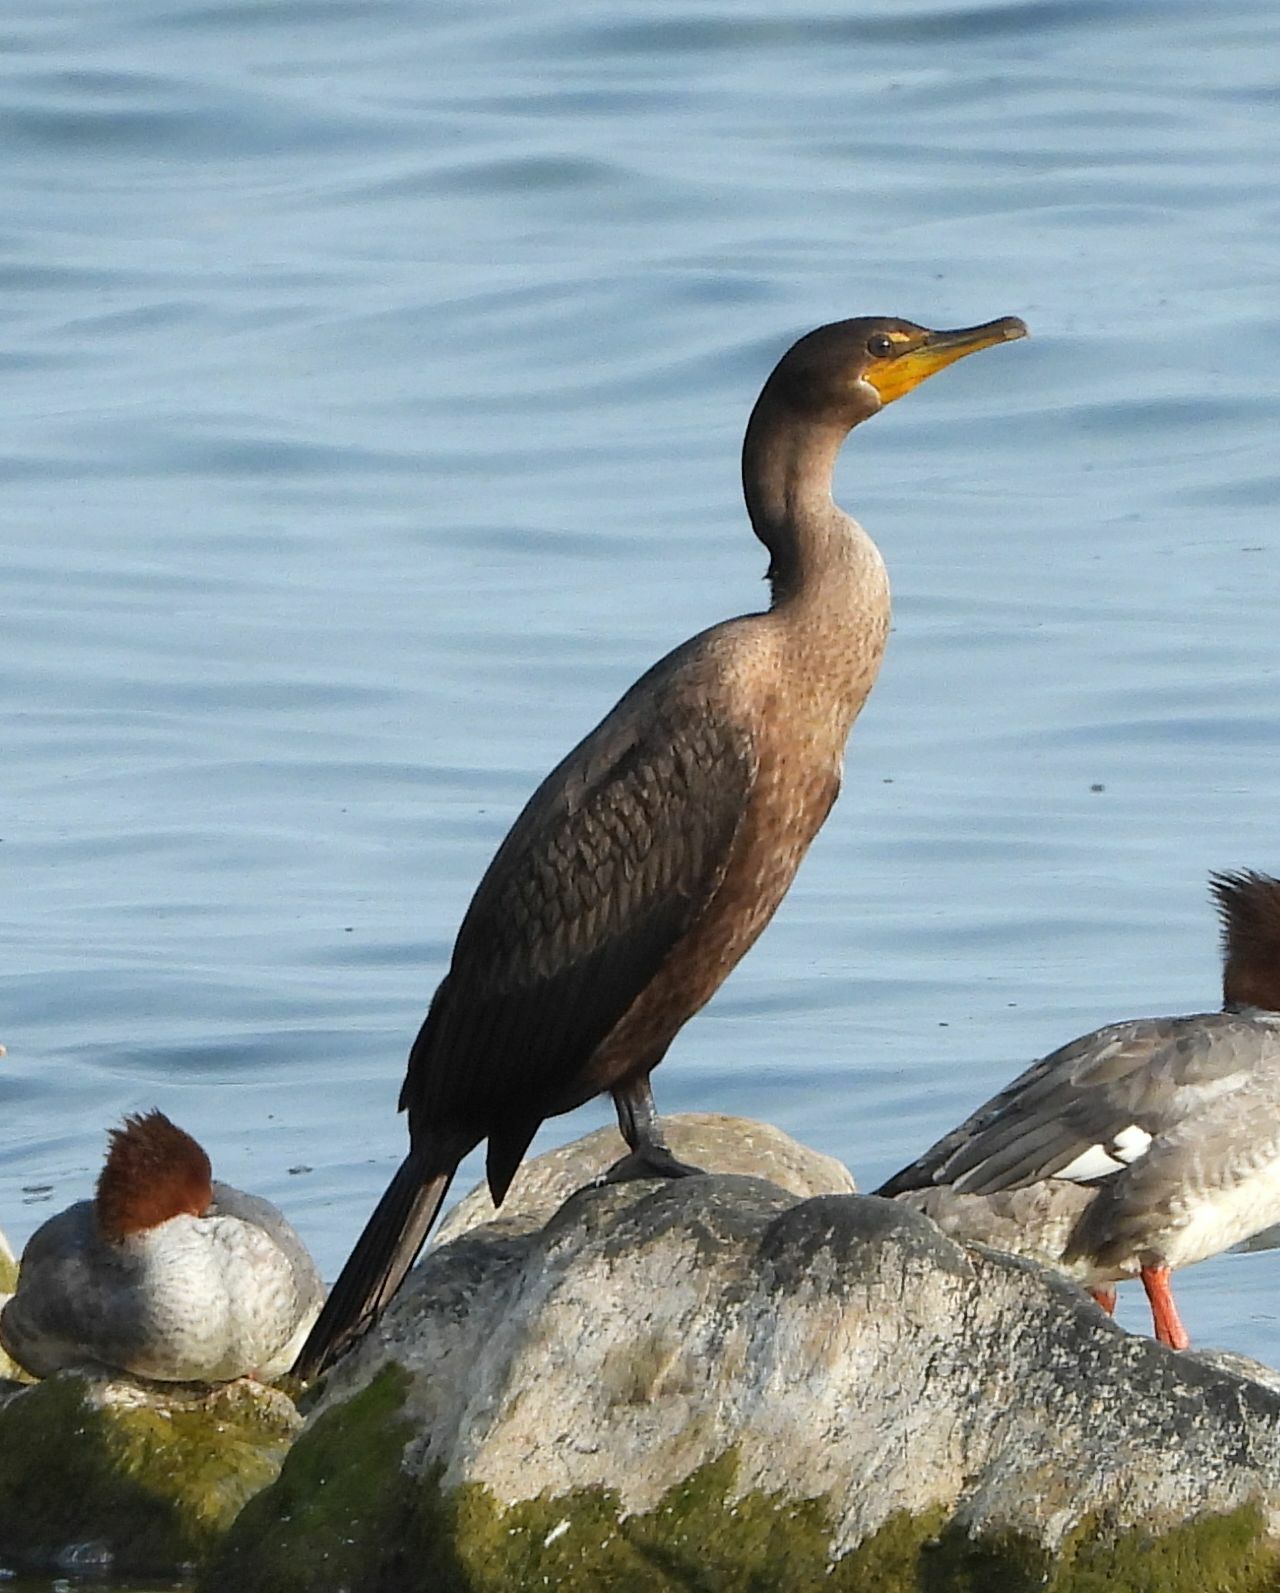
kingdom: Animalia
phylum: Chordata
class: Aves
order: Suliformes
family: Phalacrocoracidae
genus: Phalacrocorax
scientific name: Phalacrocorax auritus
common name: Double-crested cormorant
